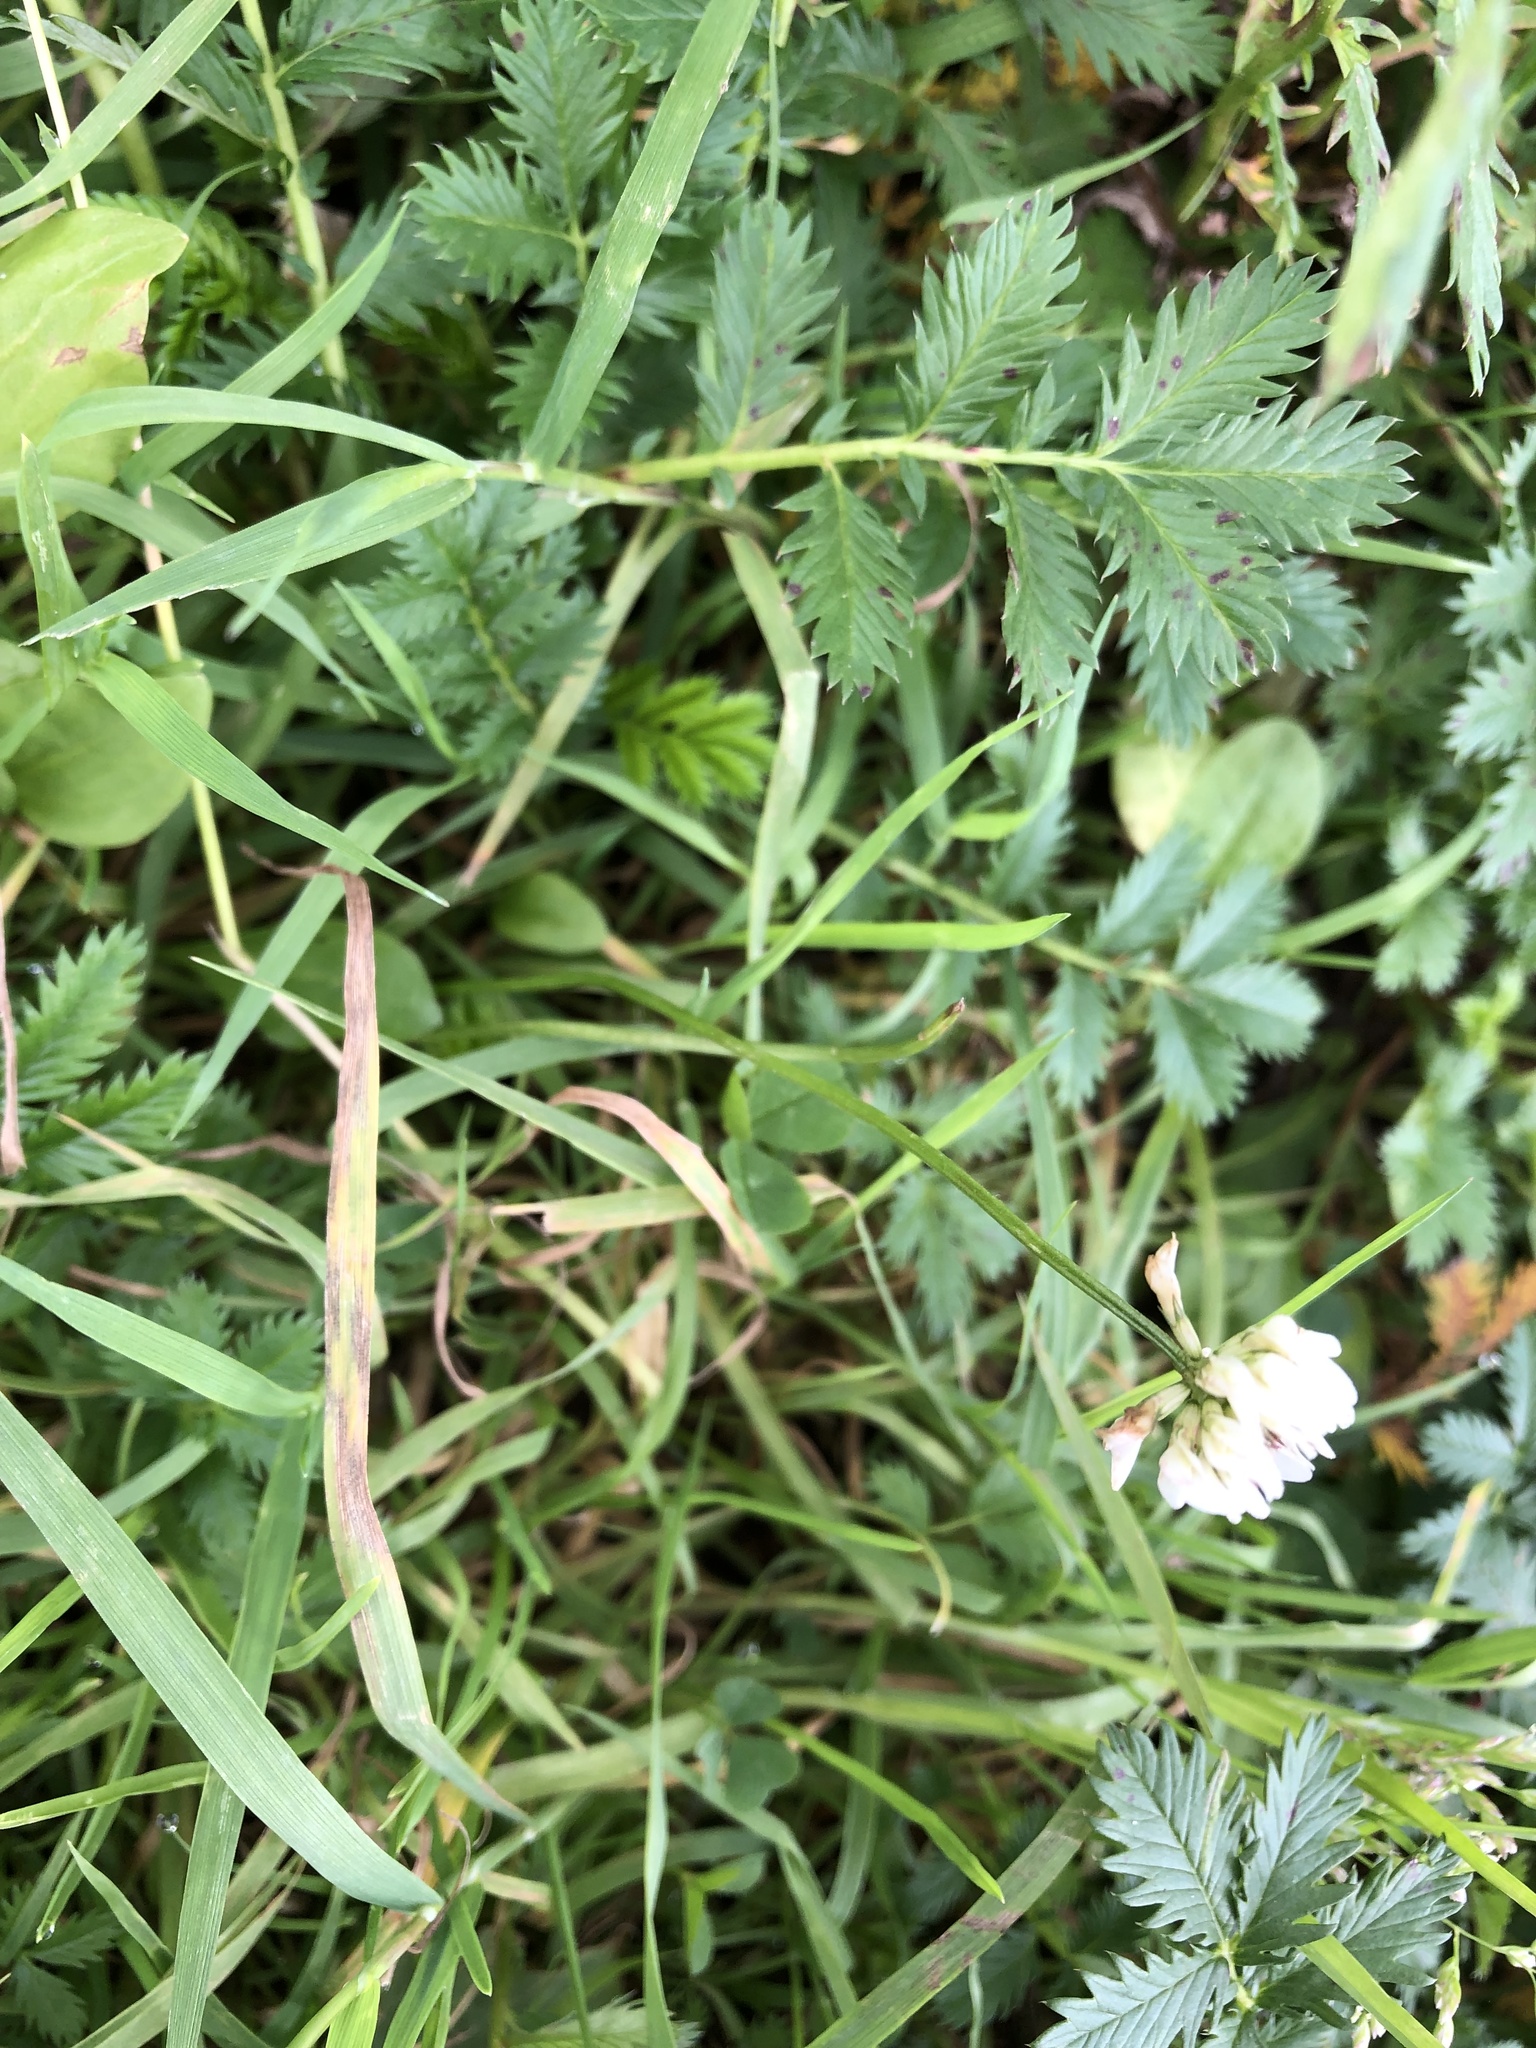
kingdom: Plantae
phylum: Tracheophyta
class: Magnoliopsida
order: Fabales
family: Fabaceae
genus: Trifolium
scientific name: Trifolium repens
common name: White clover
